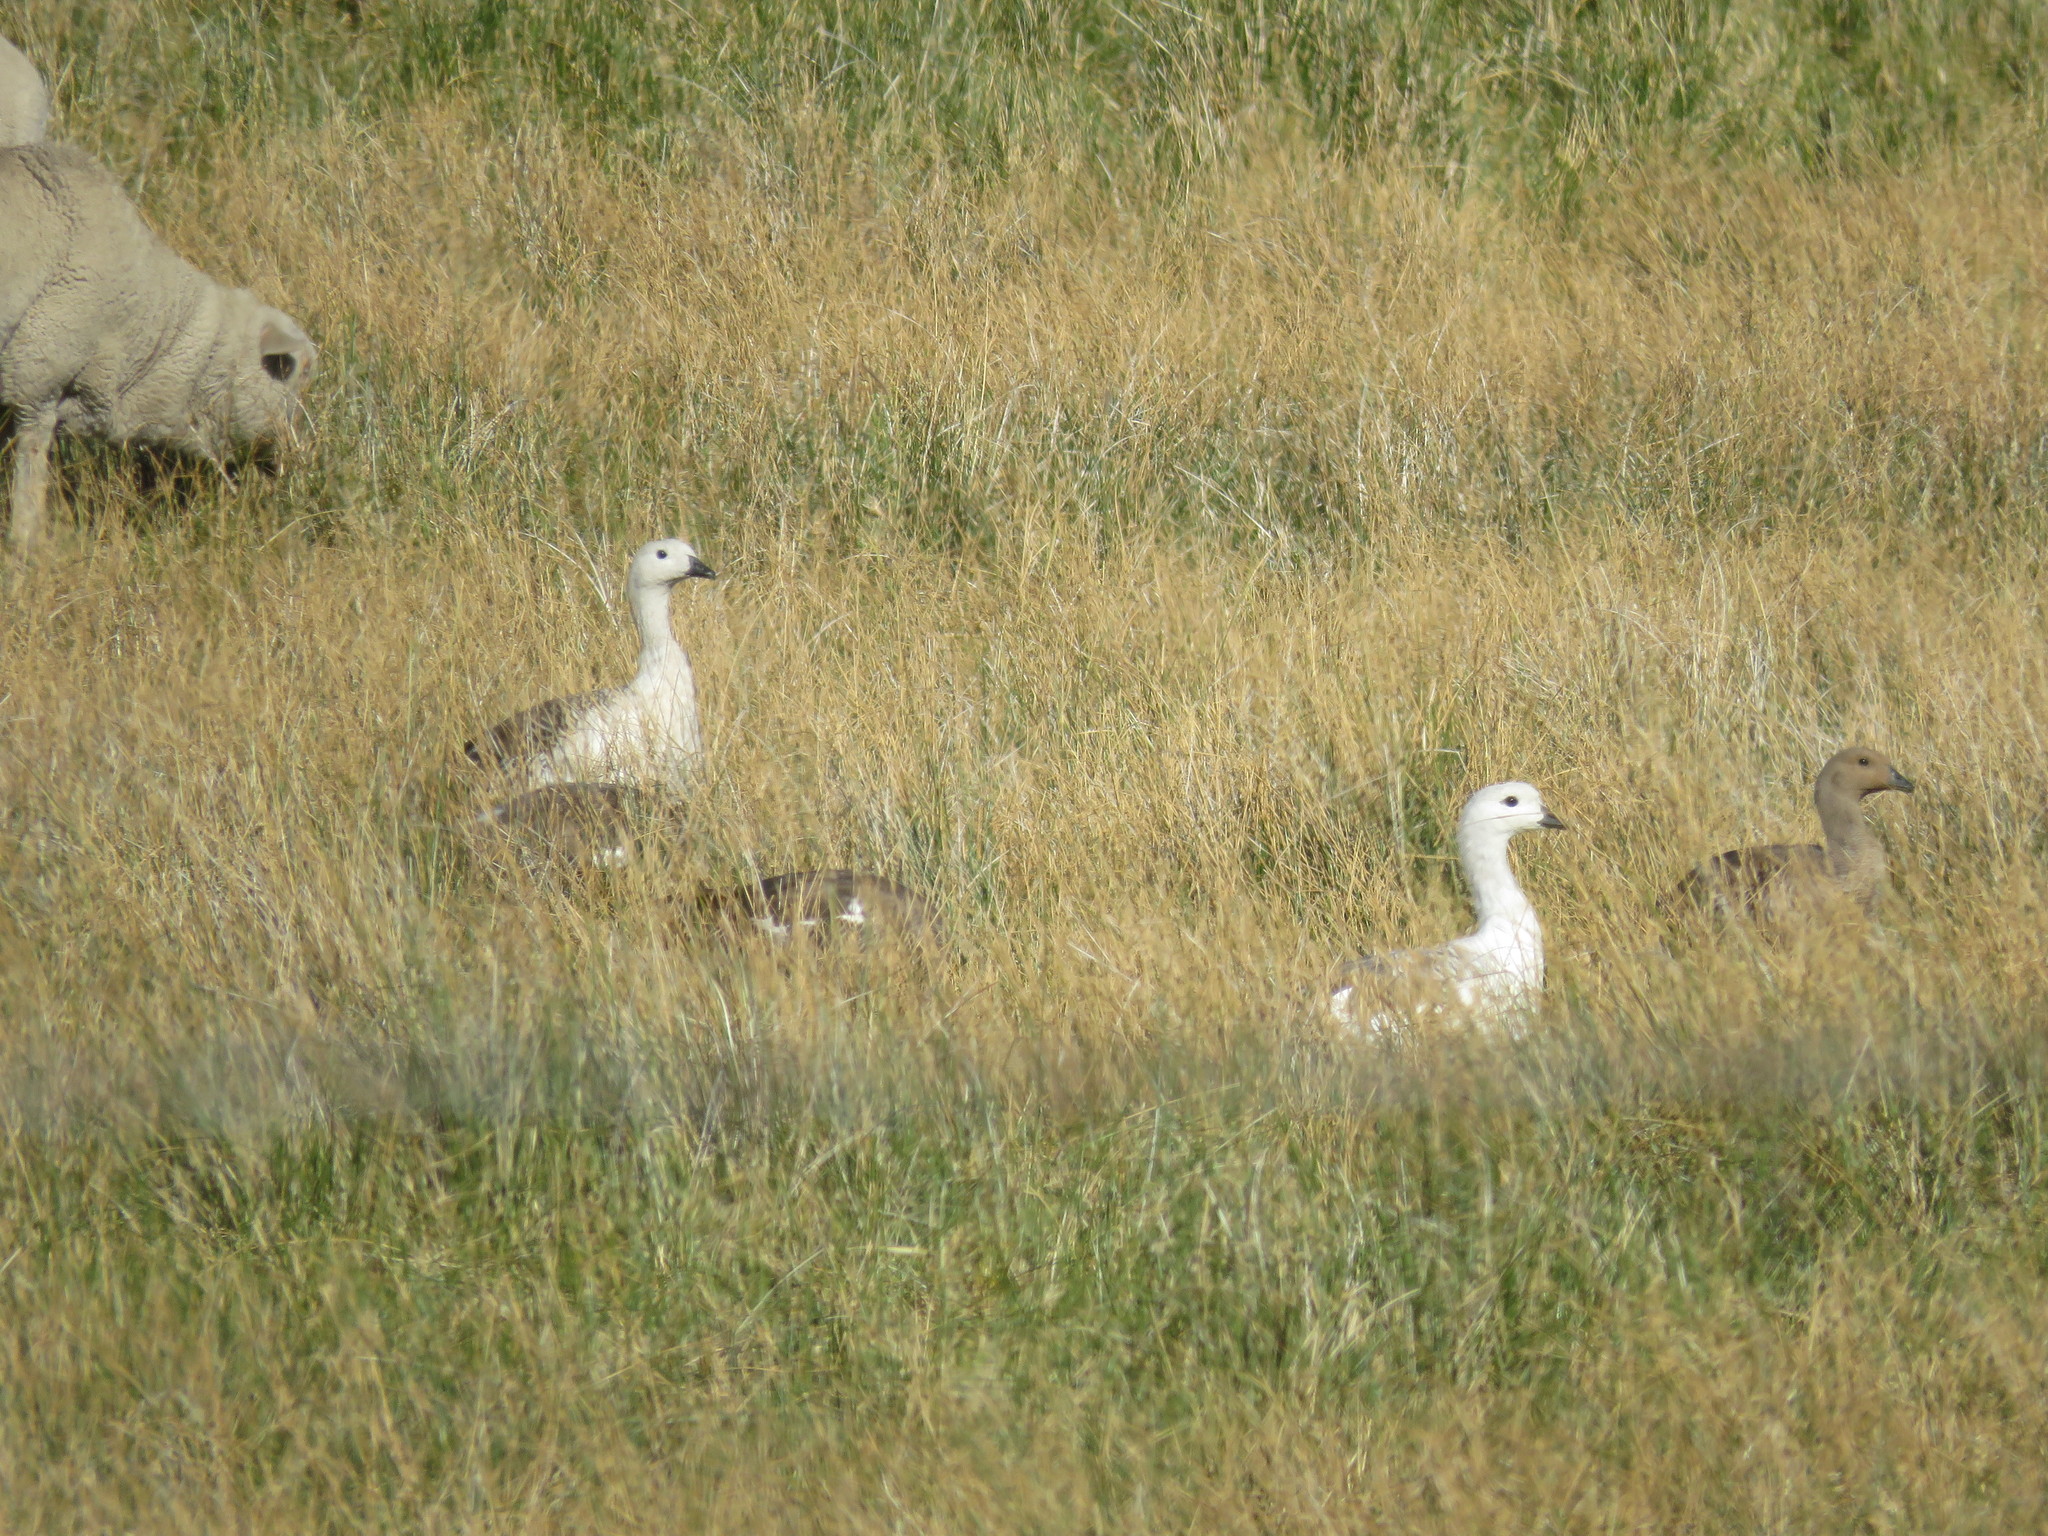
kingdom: Animalia
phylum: Chordata
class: Aves
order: Anseriformes
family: Anatidae
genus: Chloephaga
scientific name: Chloephaga picta
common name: Upland goose
